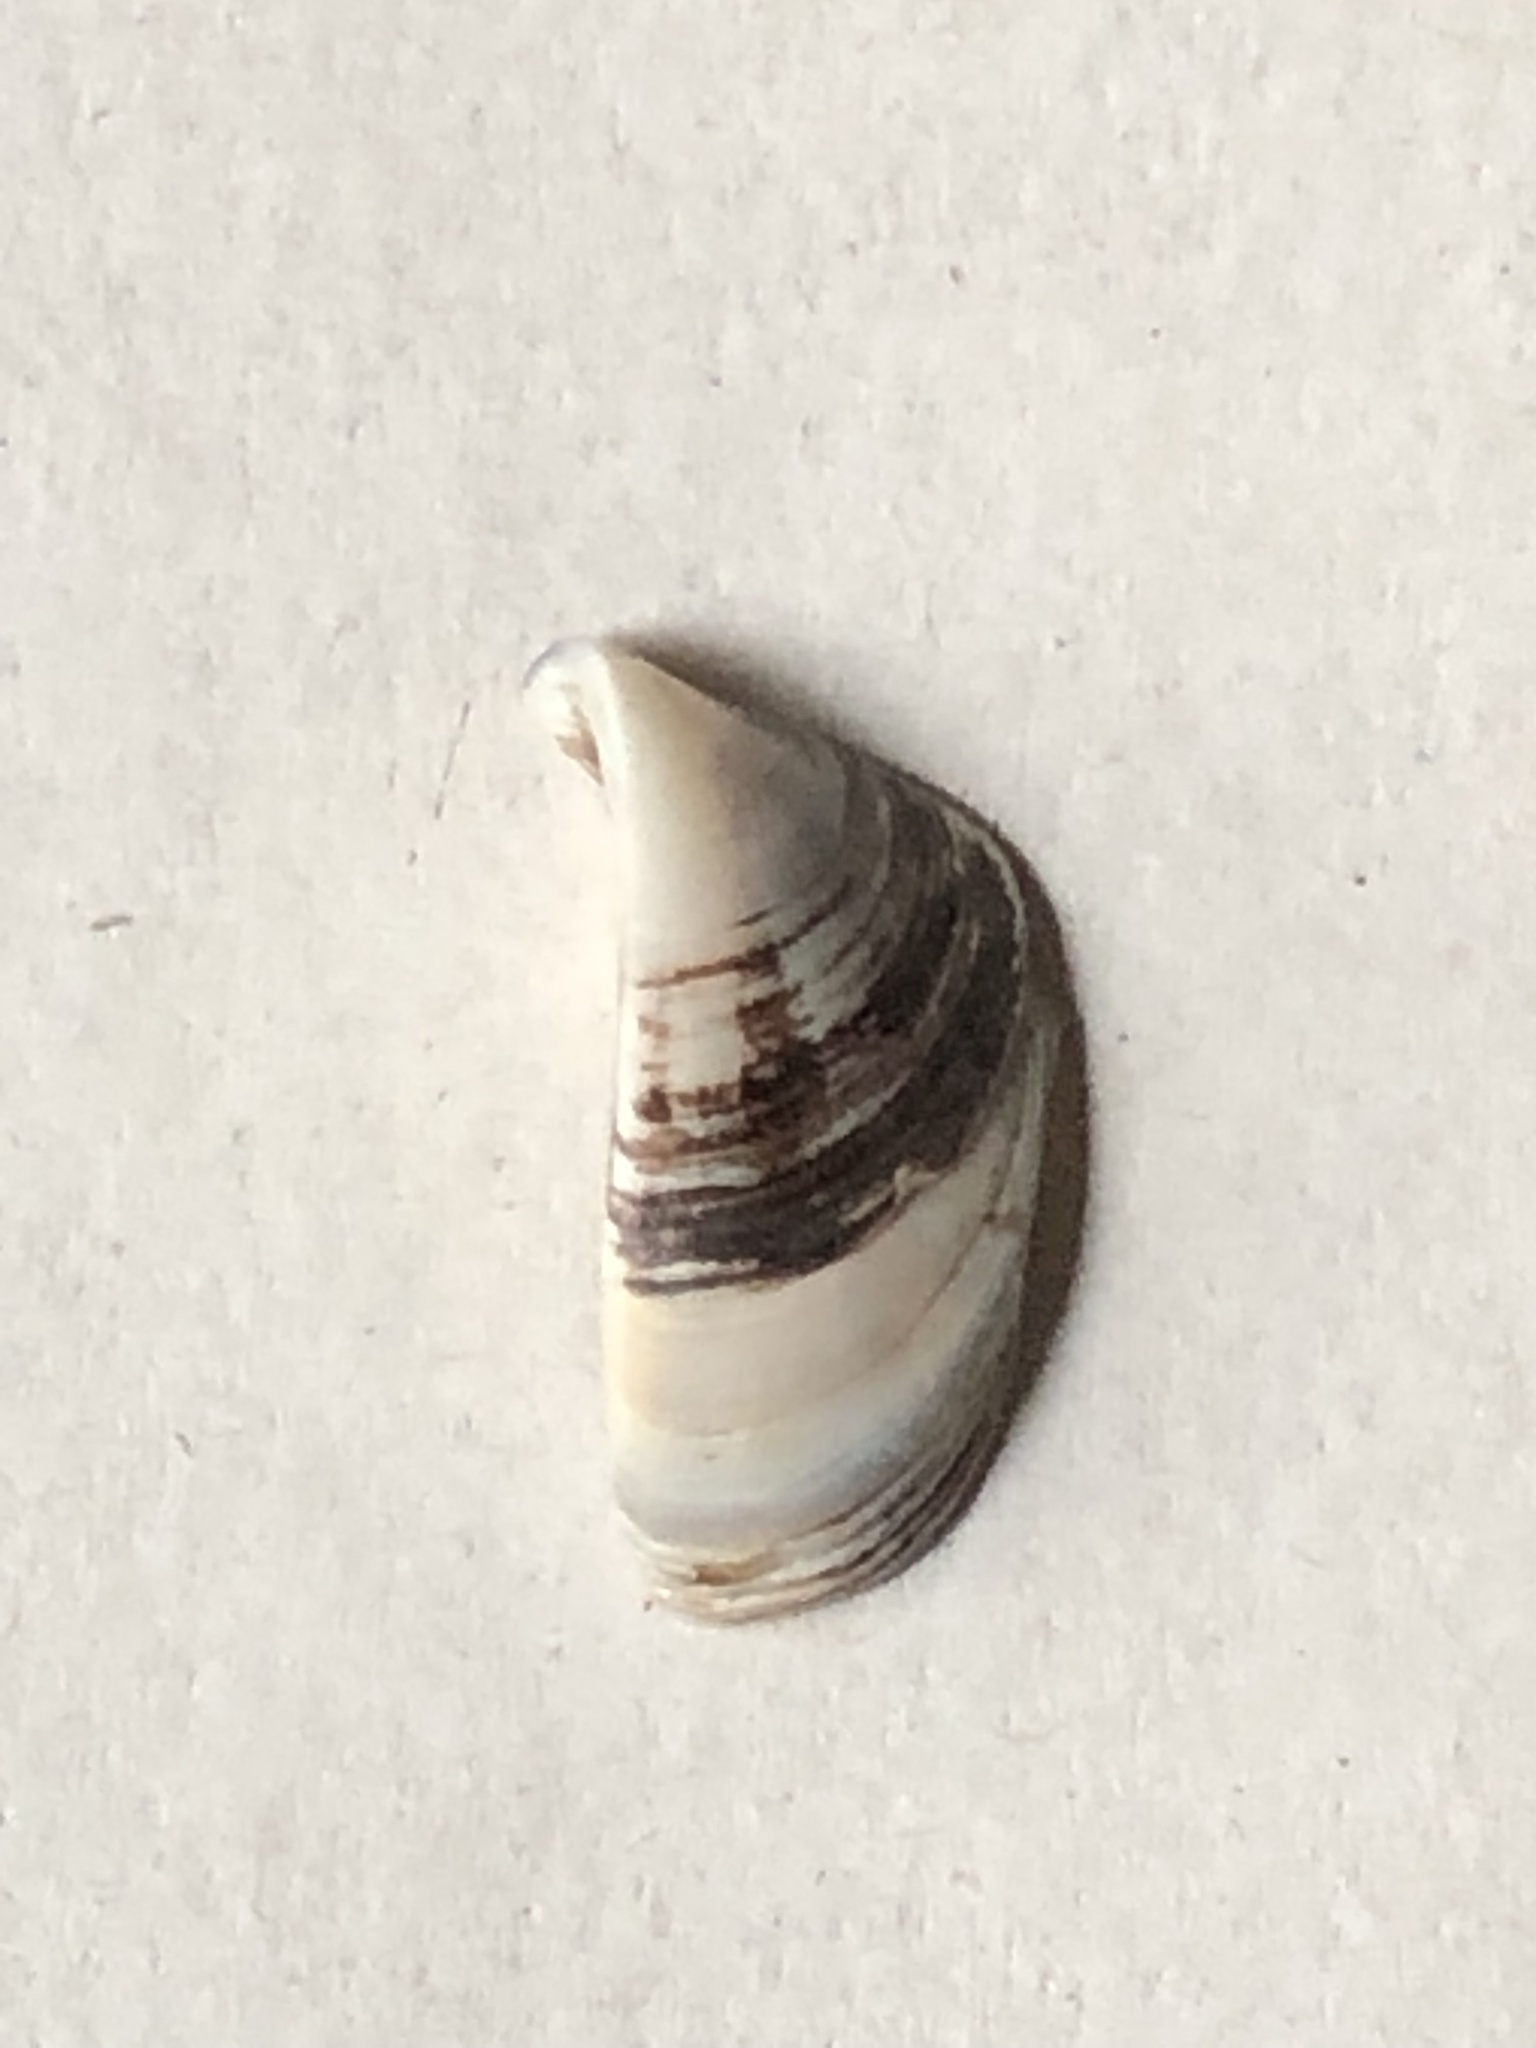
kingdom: Animalia
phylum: Mollusca
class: Bivalvia
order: Myida
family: Dreissenidae
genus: Dreissena
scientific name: Dreissena polymorpha
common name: Zebra mussel
